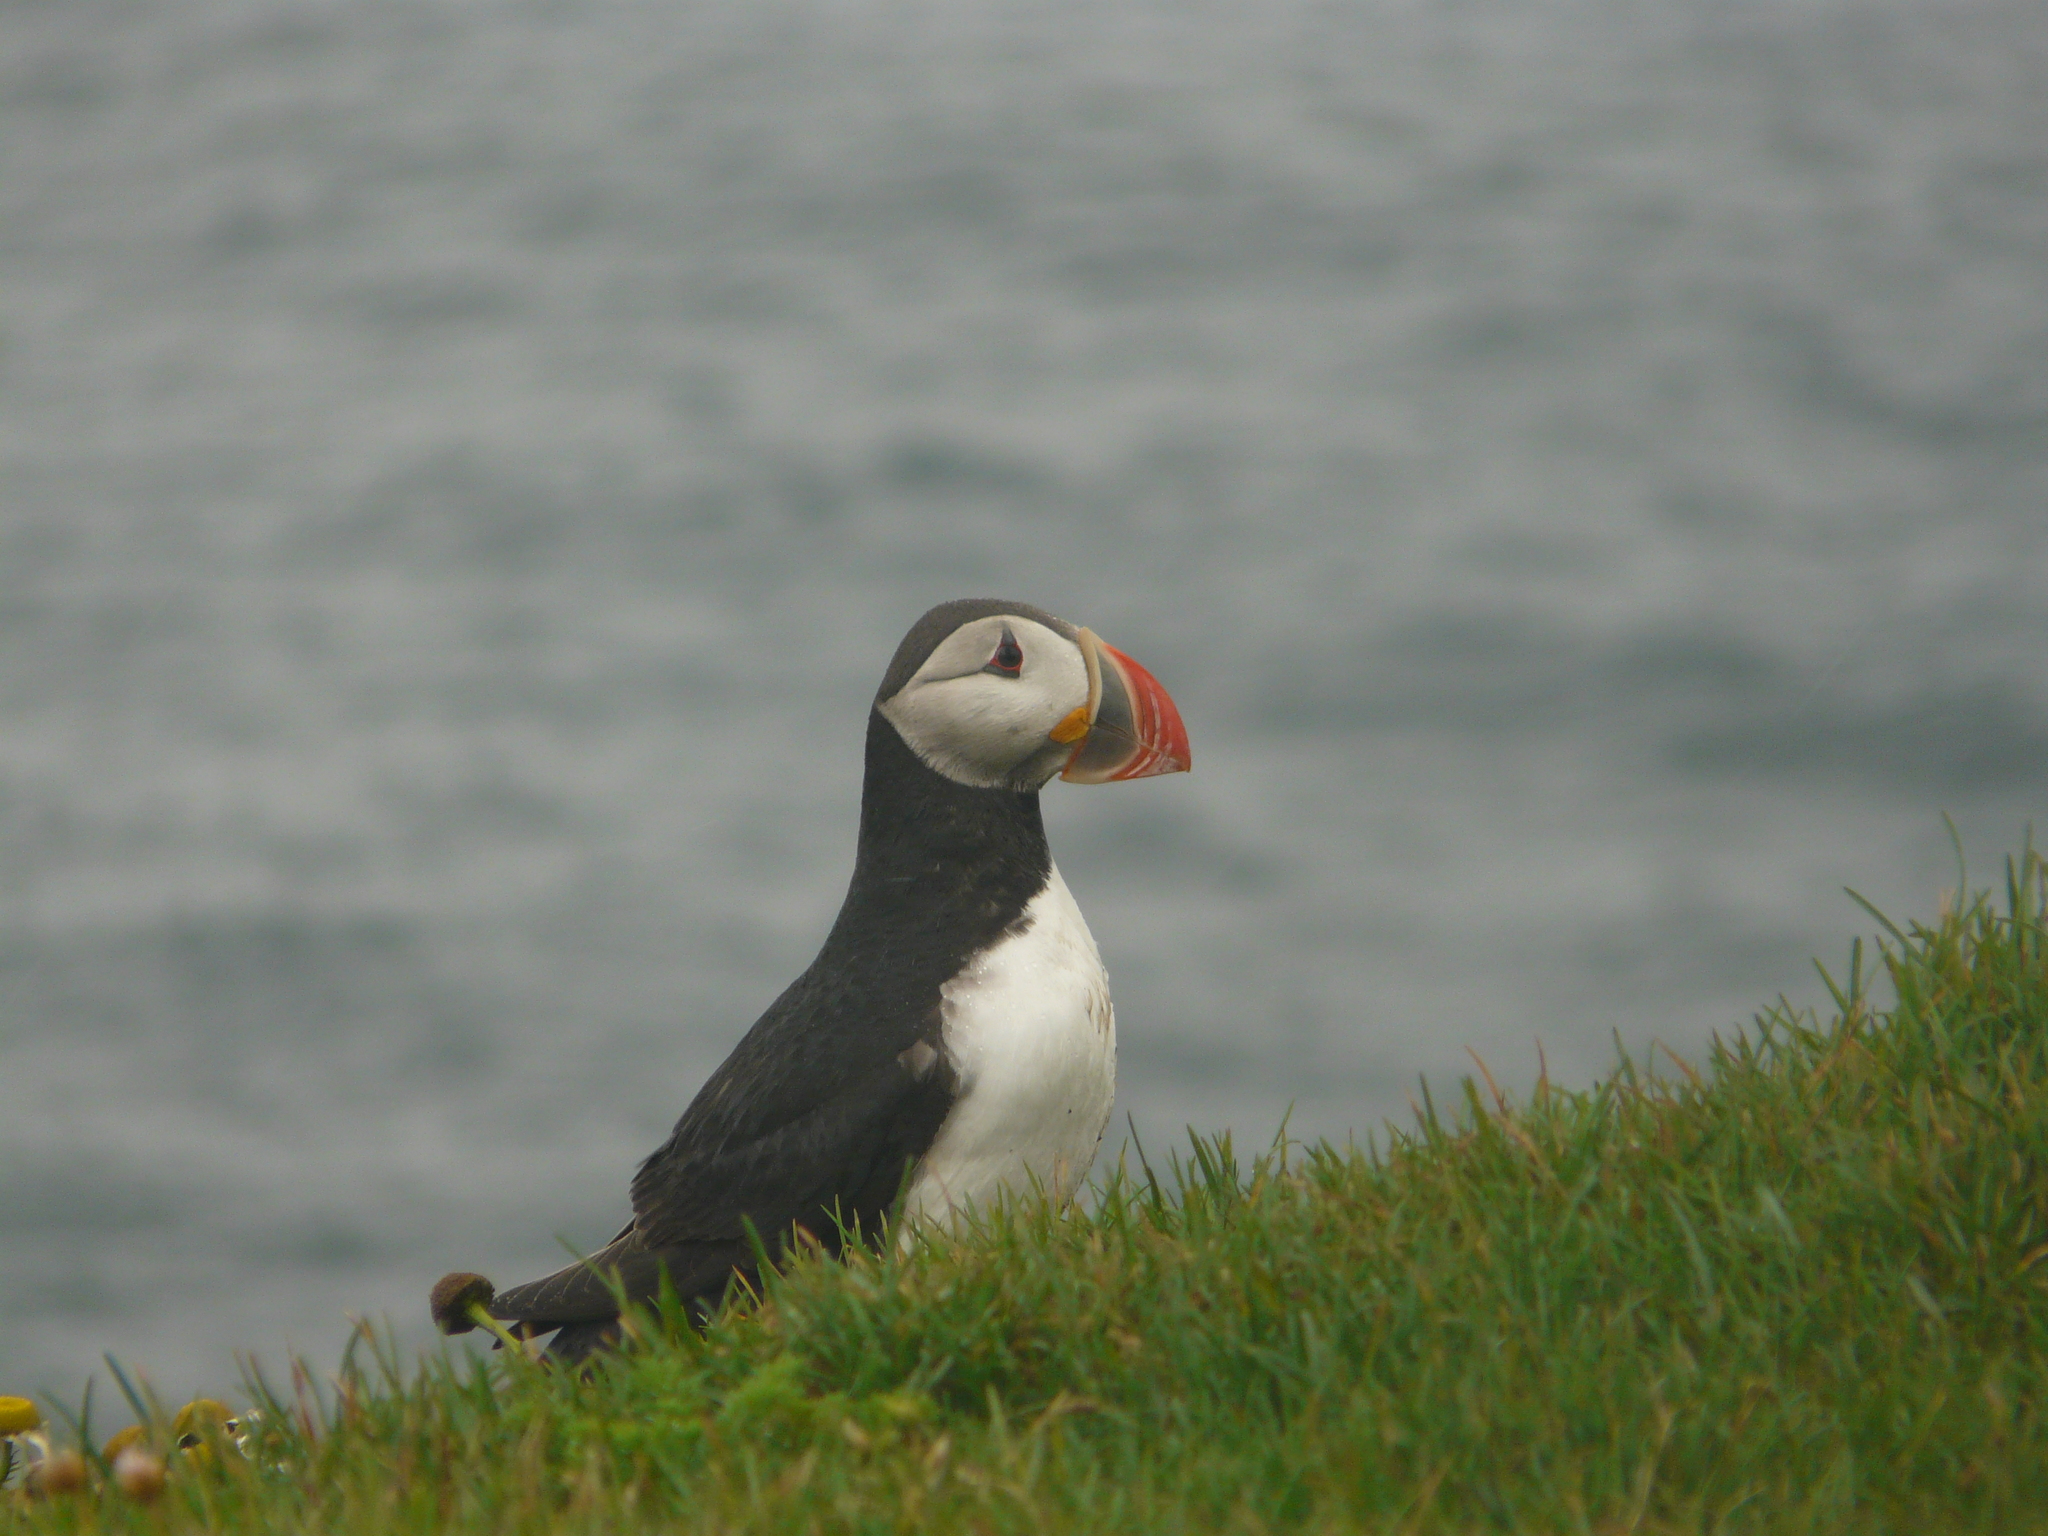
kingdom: Animalia
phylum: Chordata
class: Aves
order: Charadriiformes
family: Alcidae
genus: Fratercula
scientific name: Fratercula arctica
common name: Atlantic puffin
